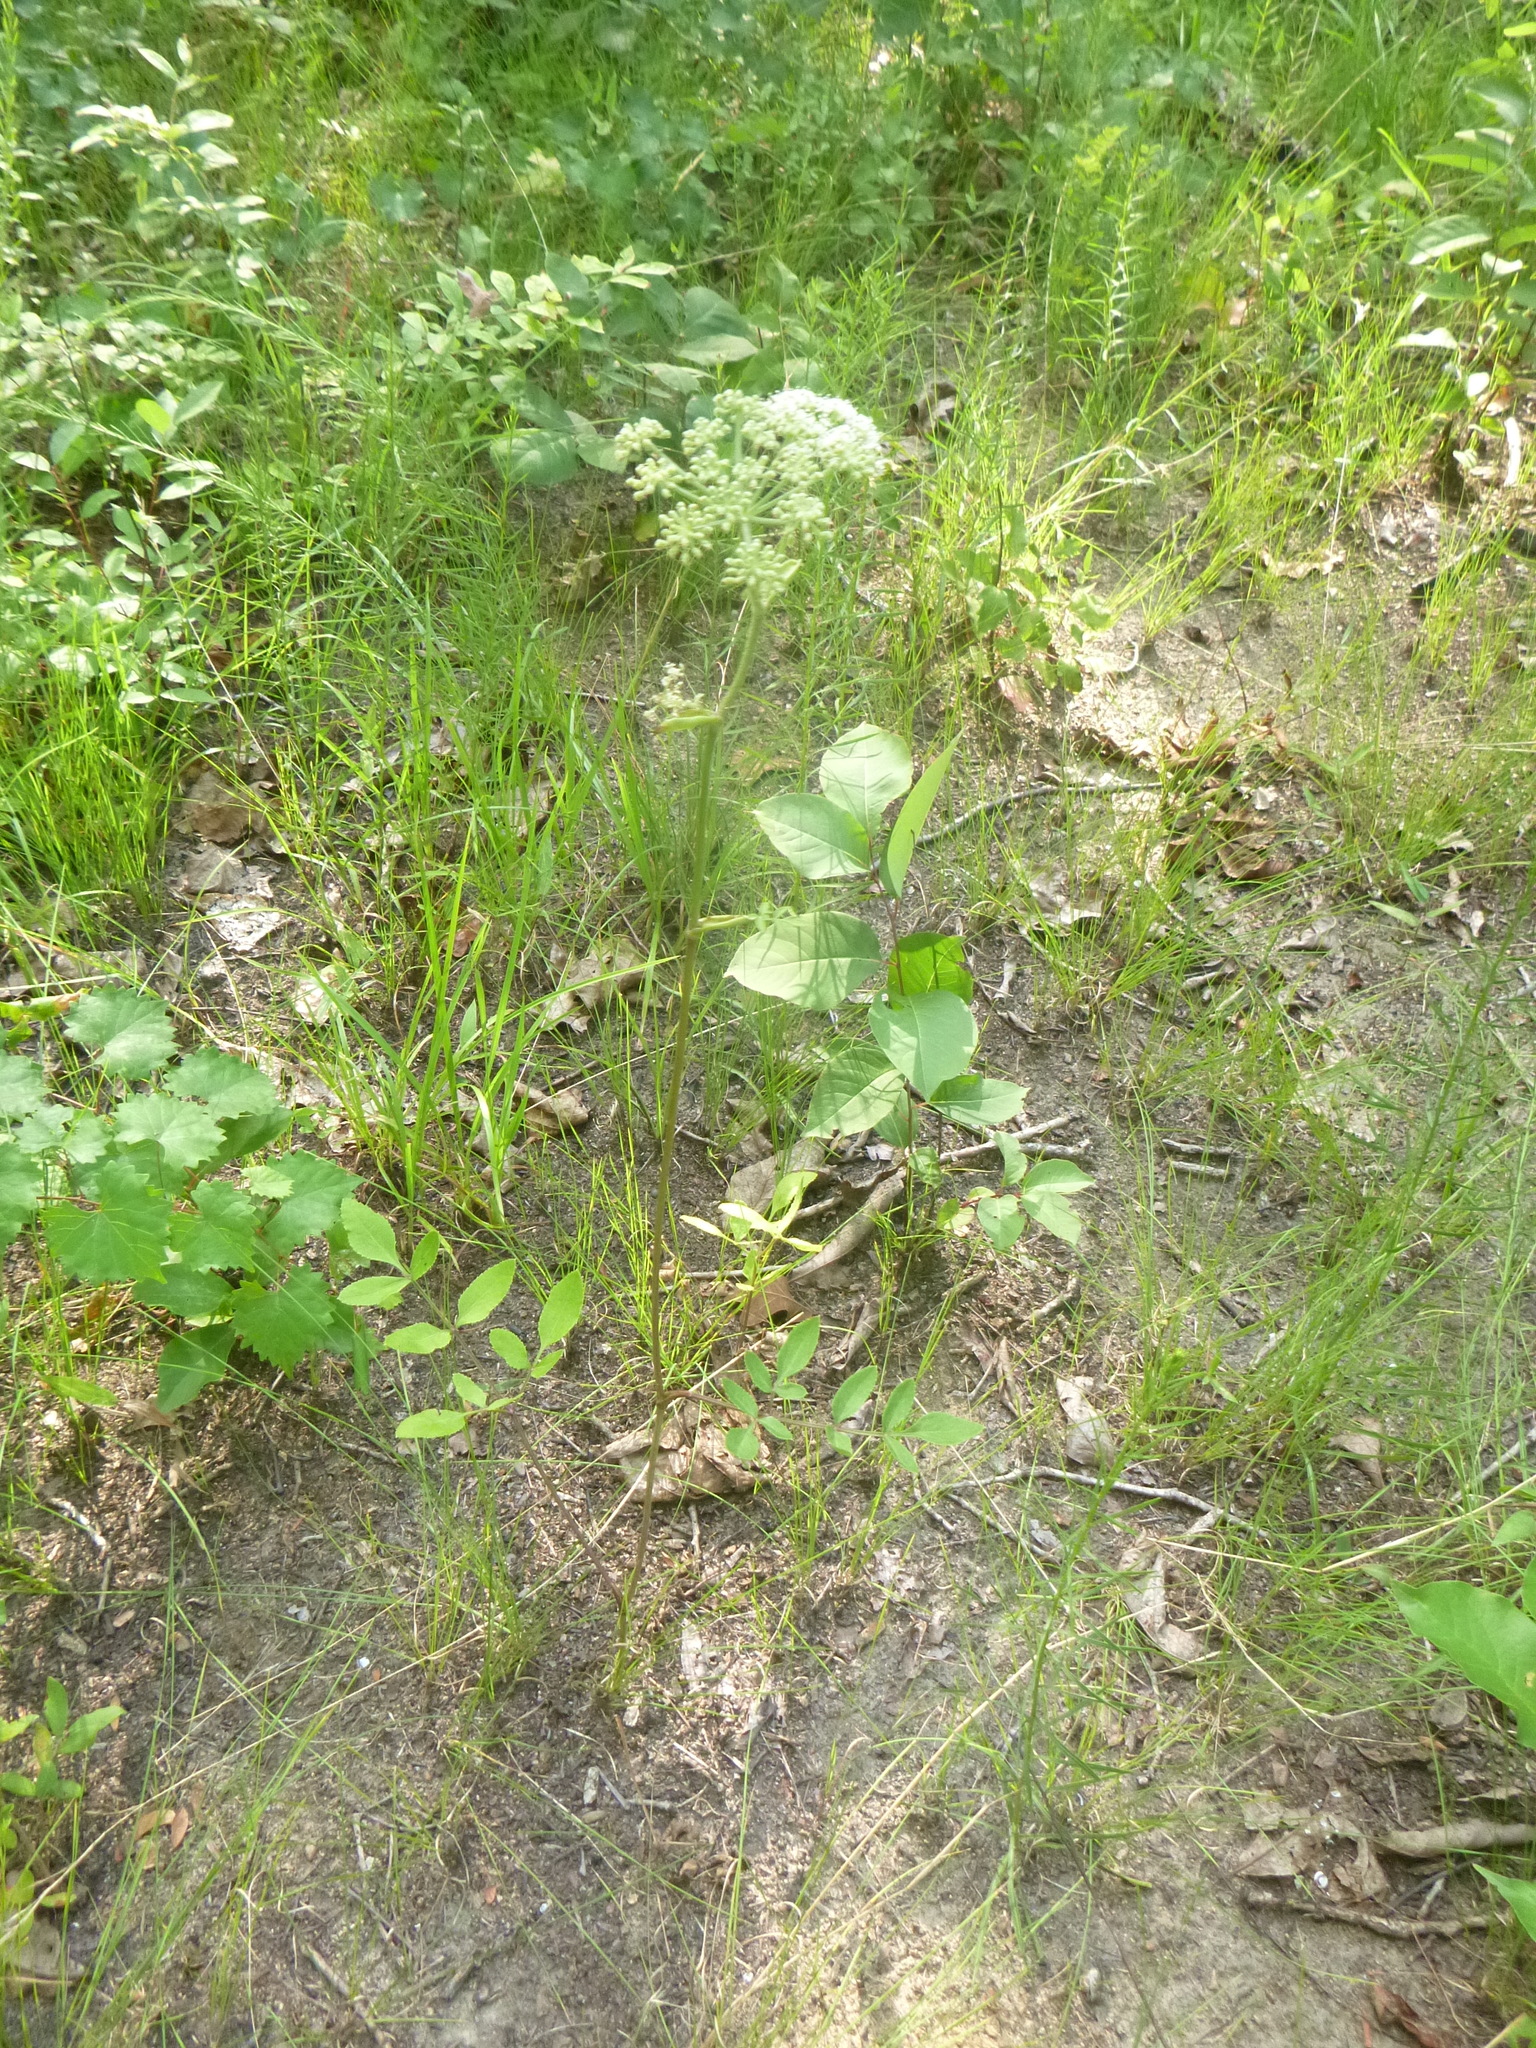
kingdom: Plantae
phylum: Tracheophyta
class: Magnoliopsida
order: Apiales
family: Apiaceae
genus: Angelica
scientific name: Angelica venenosa
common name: Hairy angelica
